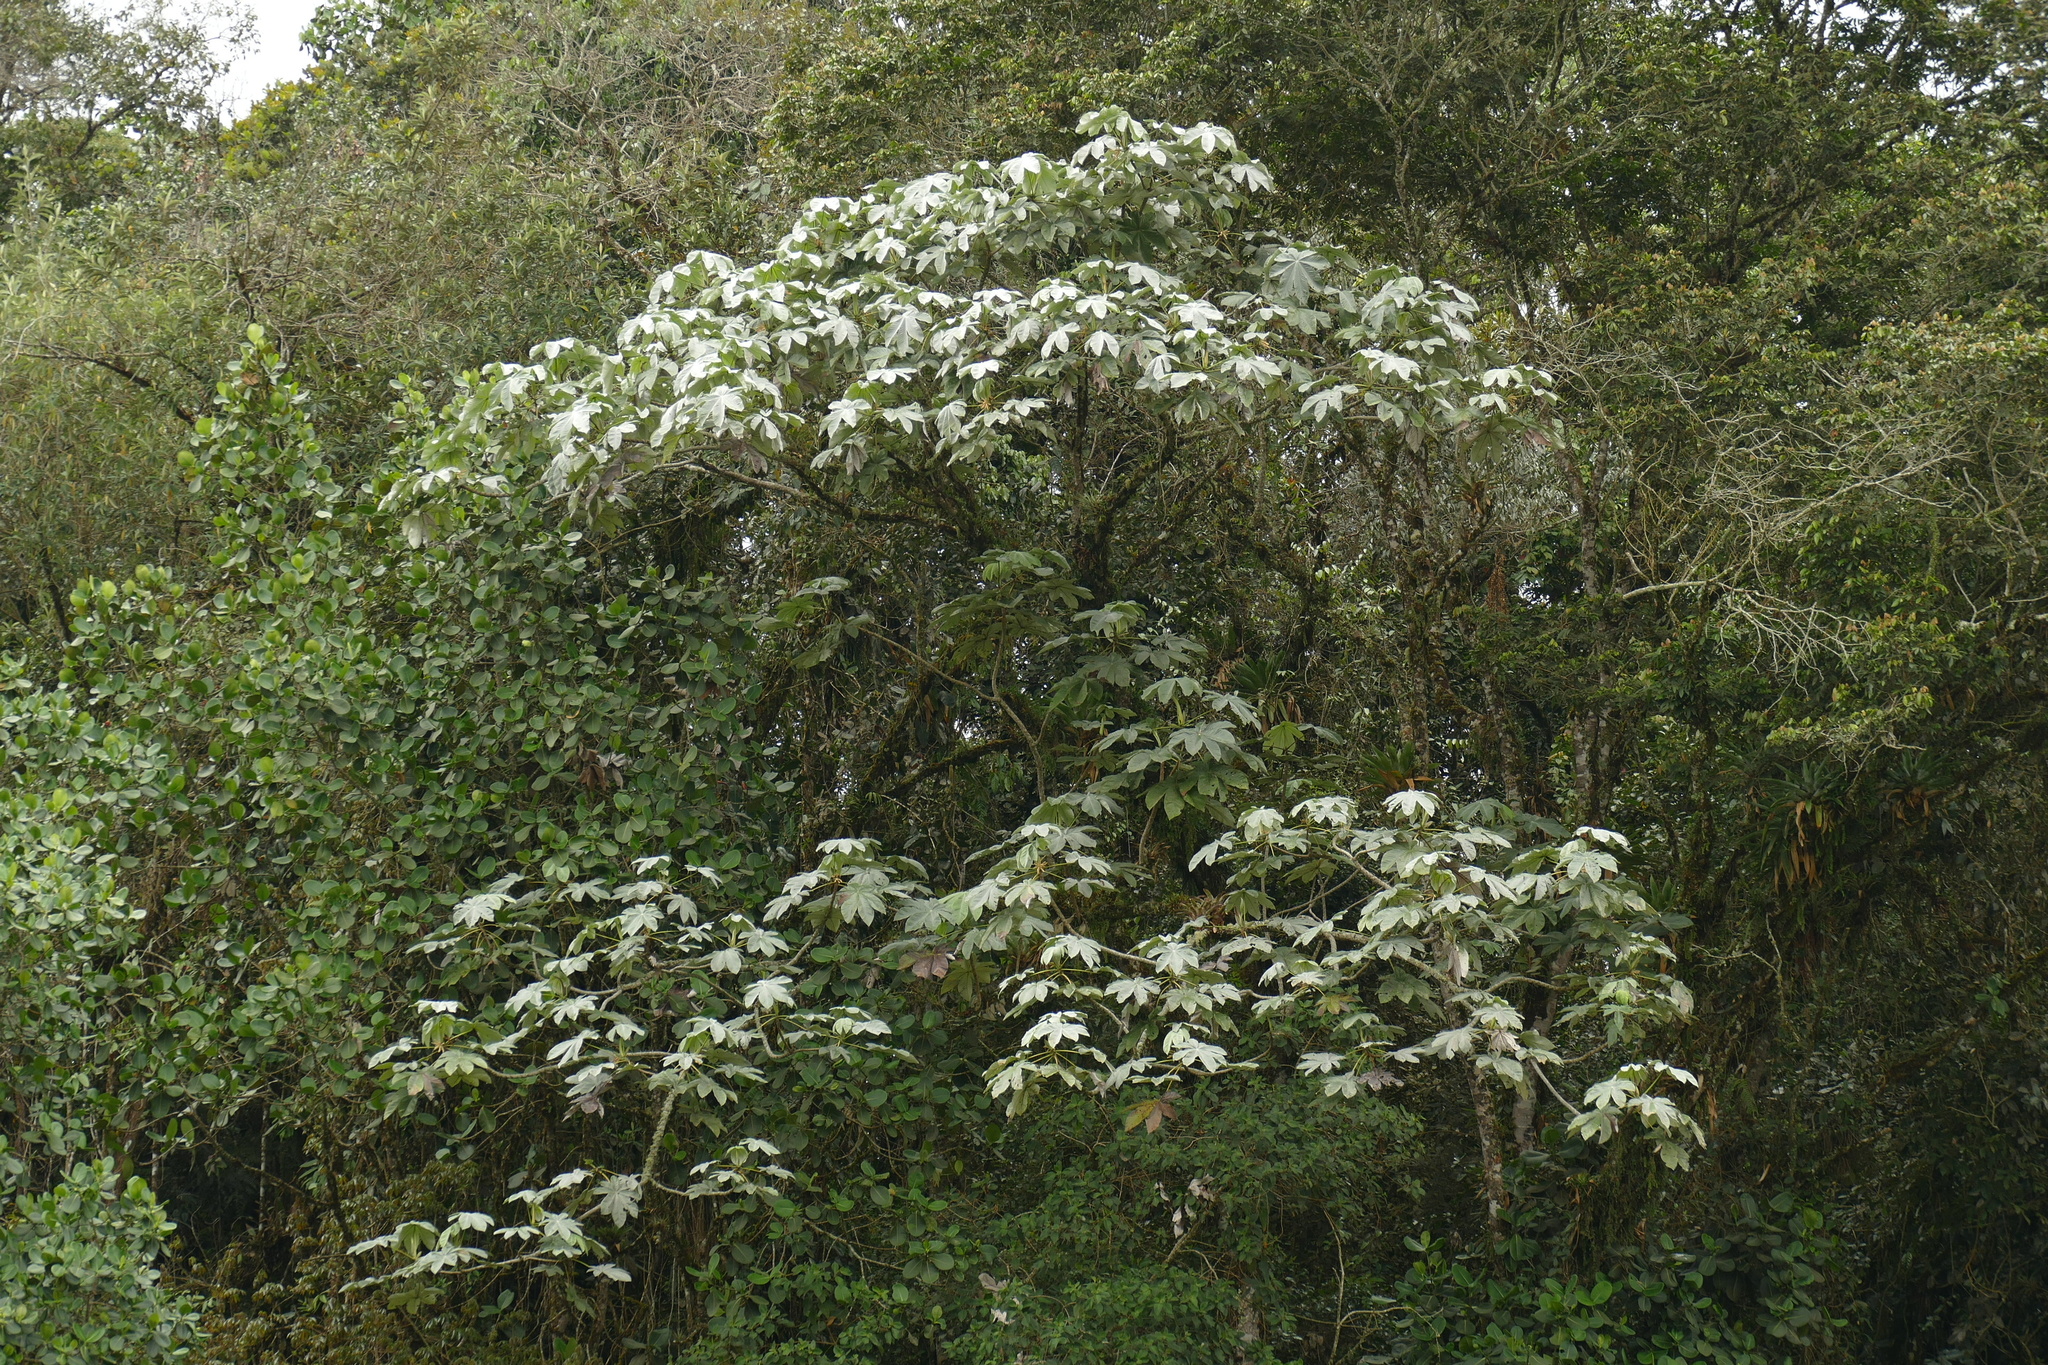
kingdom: Plantae
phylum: Tracheophyta
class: Magnoliopsida
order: Rosales
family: Urticaceae
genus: Cecropia
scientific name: Cecropia telealba
